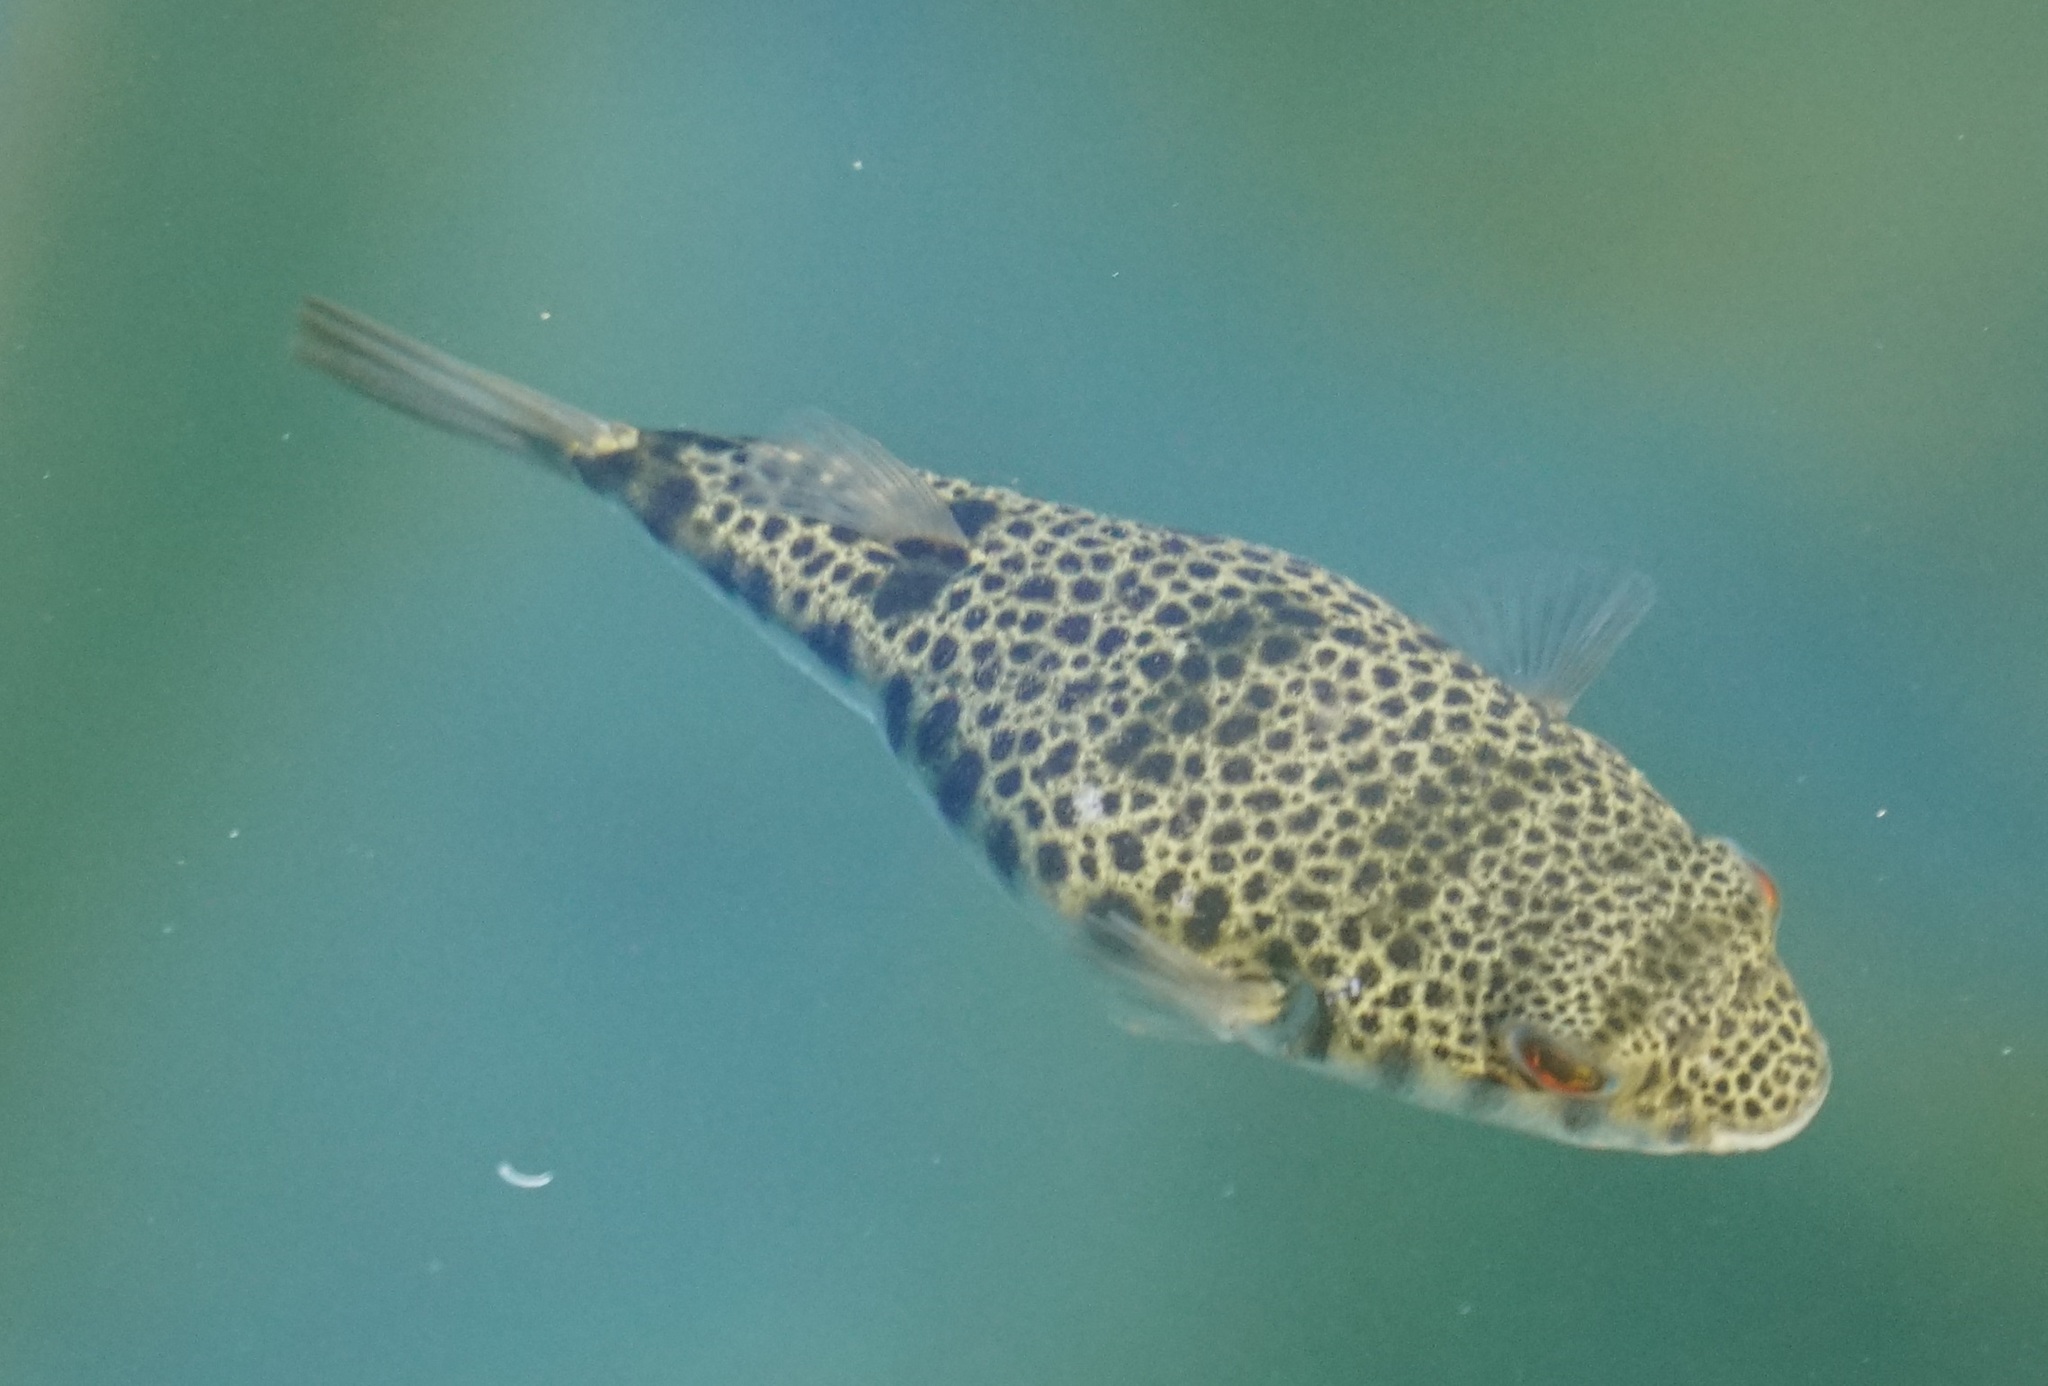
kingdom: Animalia
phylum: Chordata
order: Tetraodontiformes
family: Tetraodontidae
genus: Tetractenos
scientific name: Tetractenos hamiltoni
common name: Common toadfish
